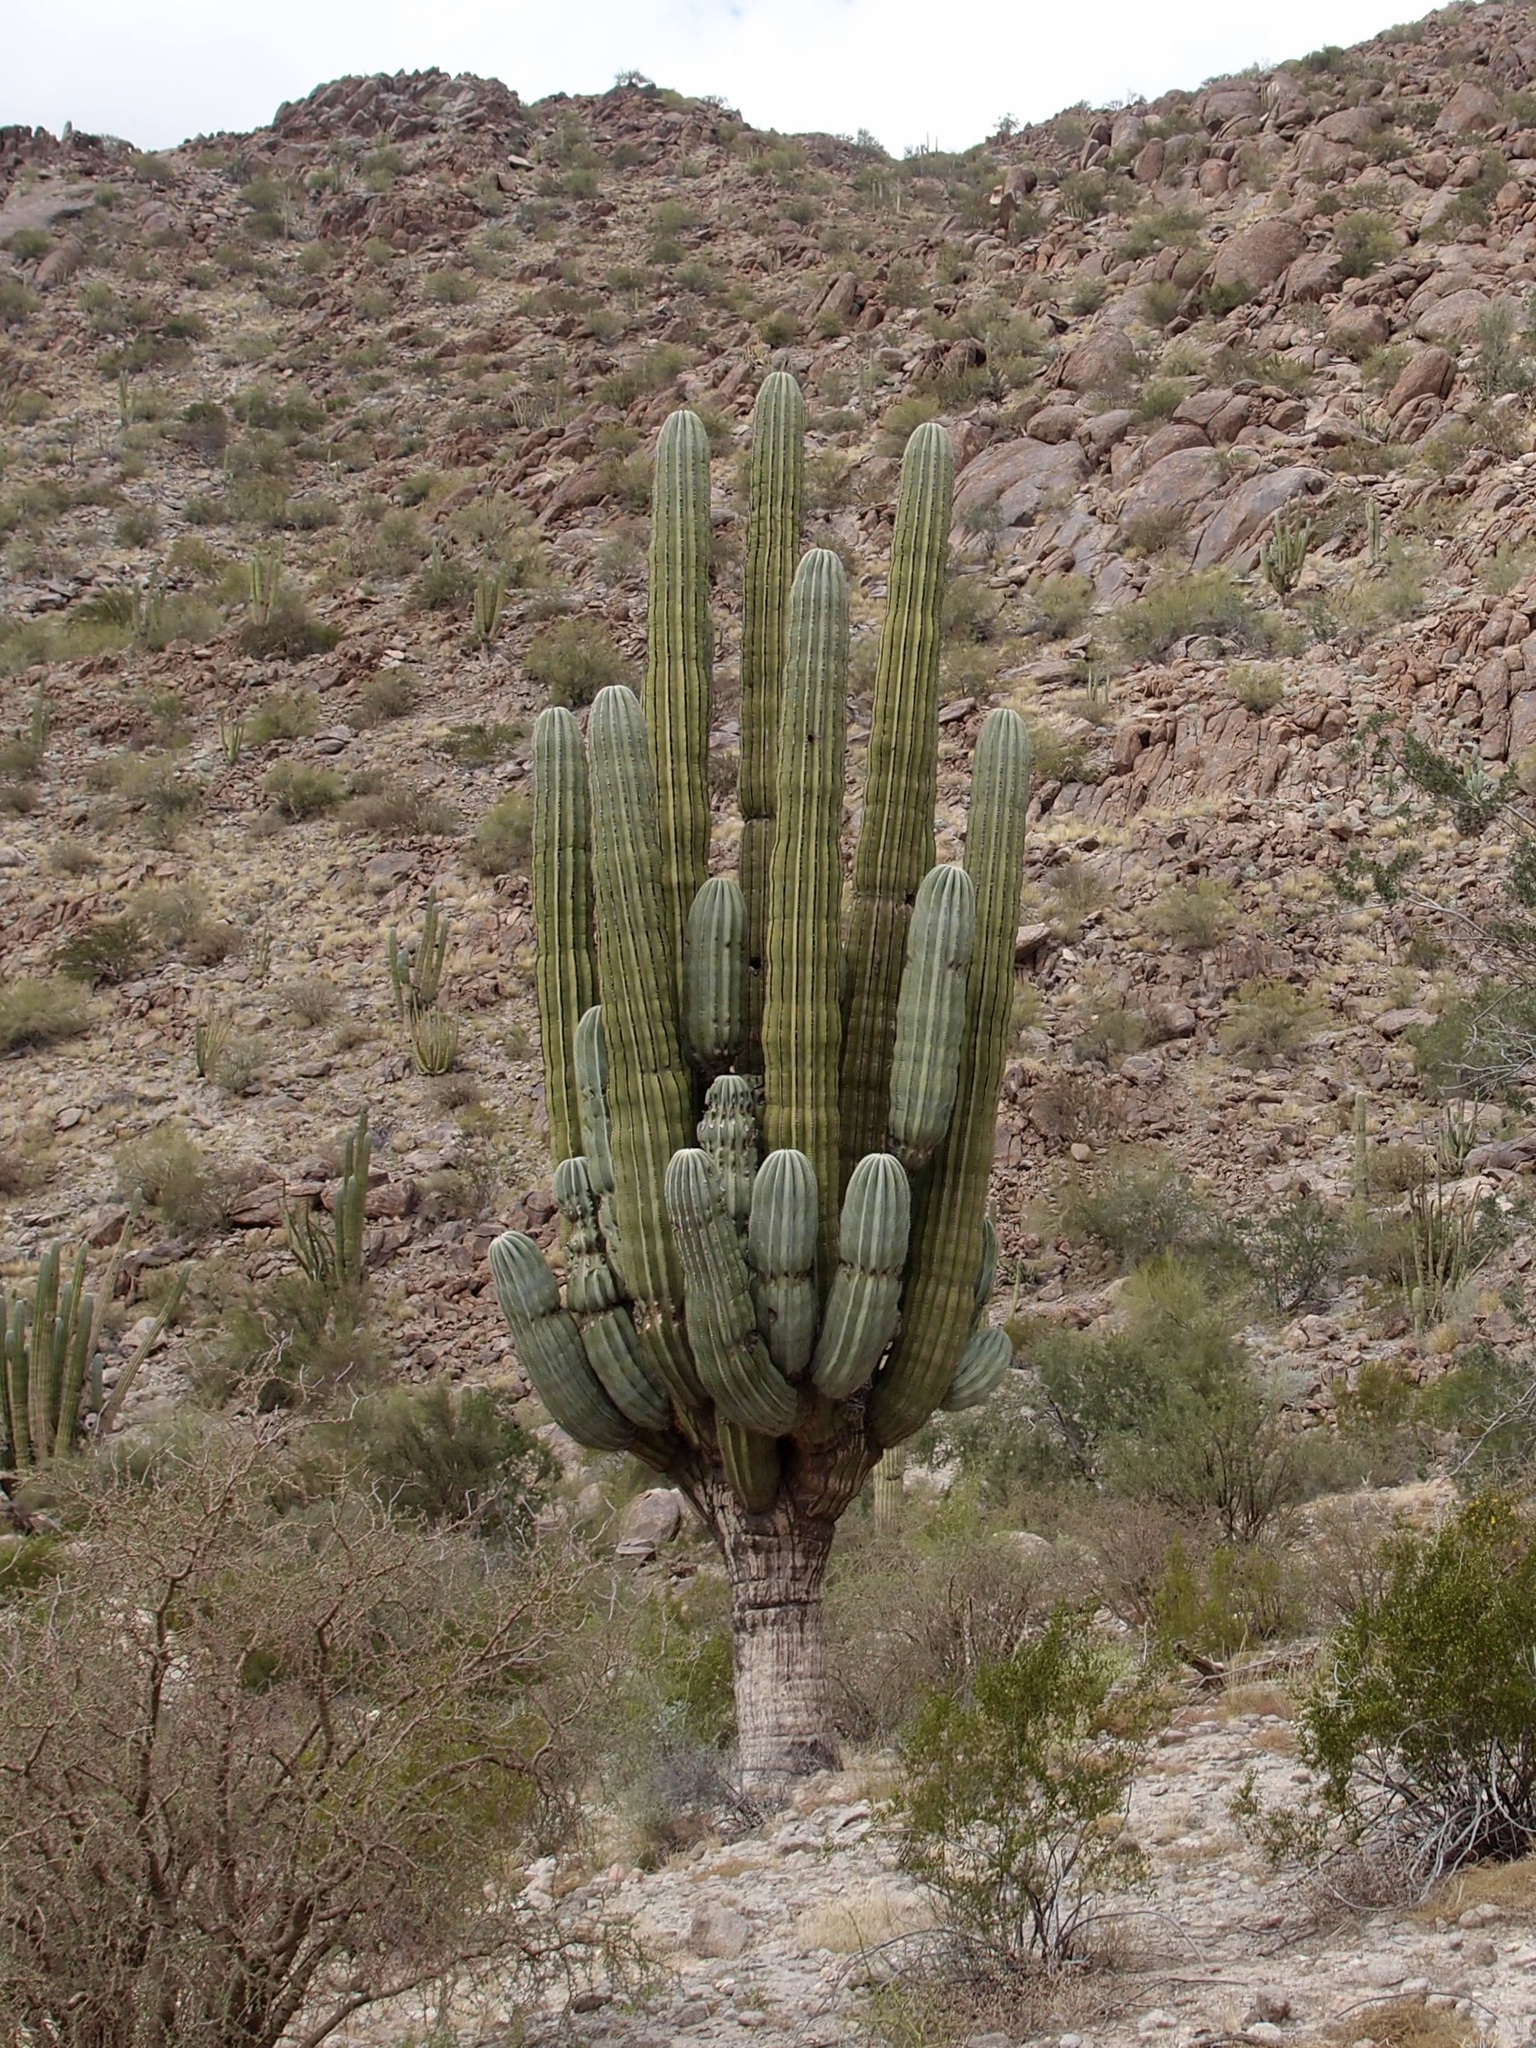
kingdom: Plantae
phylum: Tracheophyta
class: Magnoliopsida
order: Caryophyllales
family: Cactaceae
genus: Pachycereus
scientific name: Pachycereus pringlei
